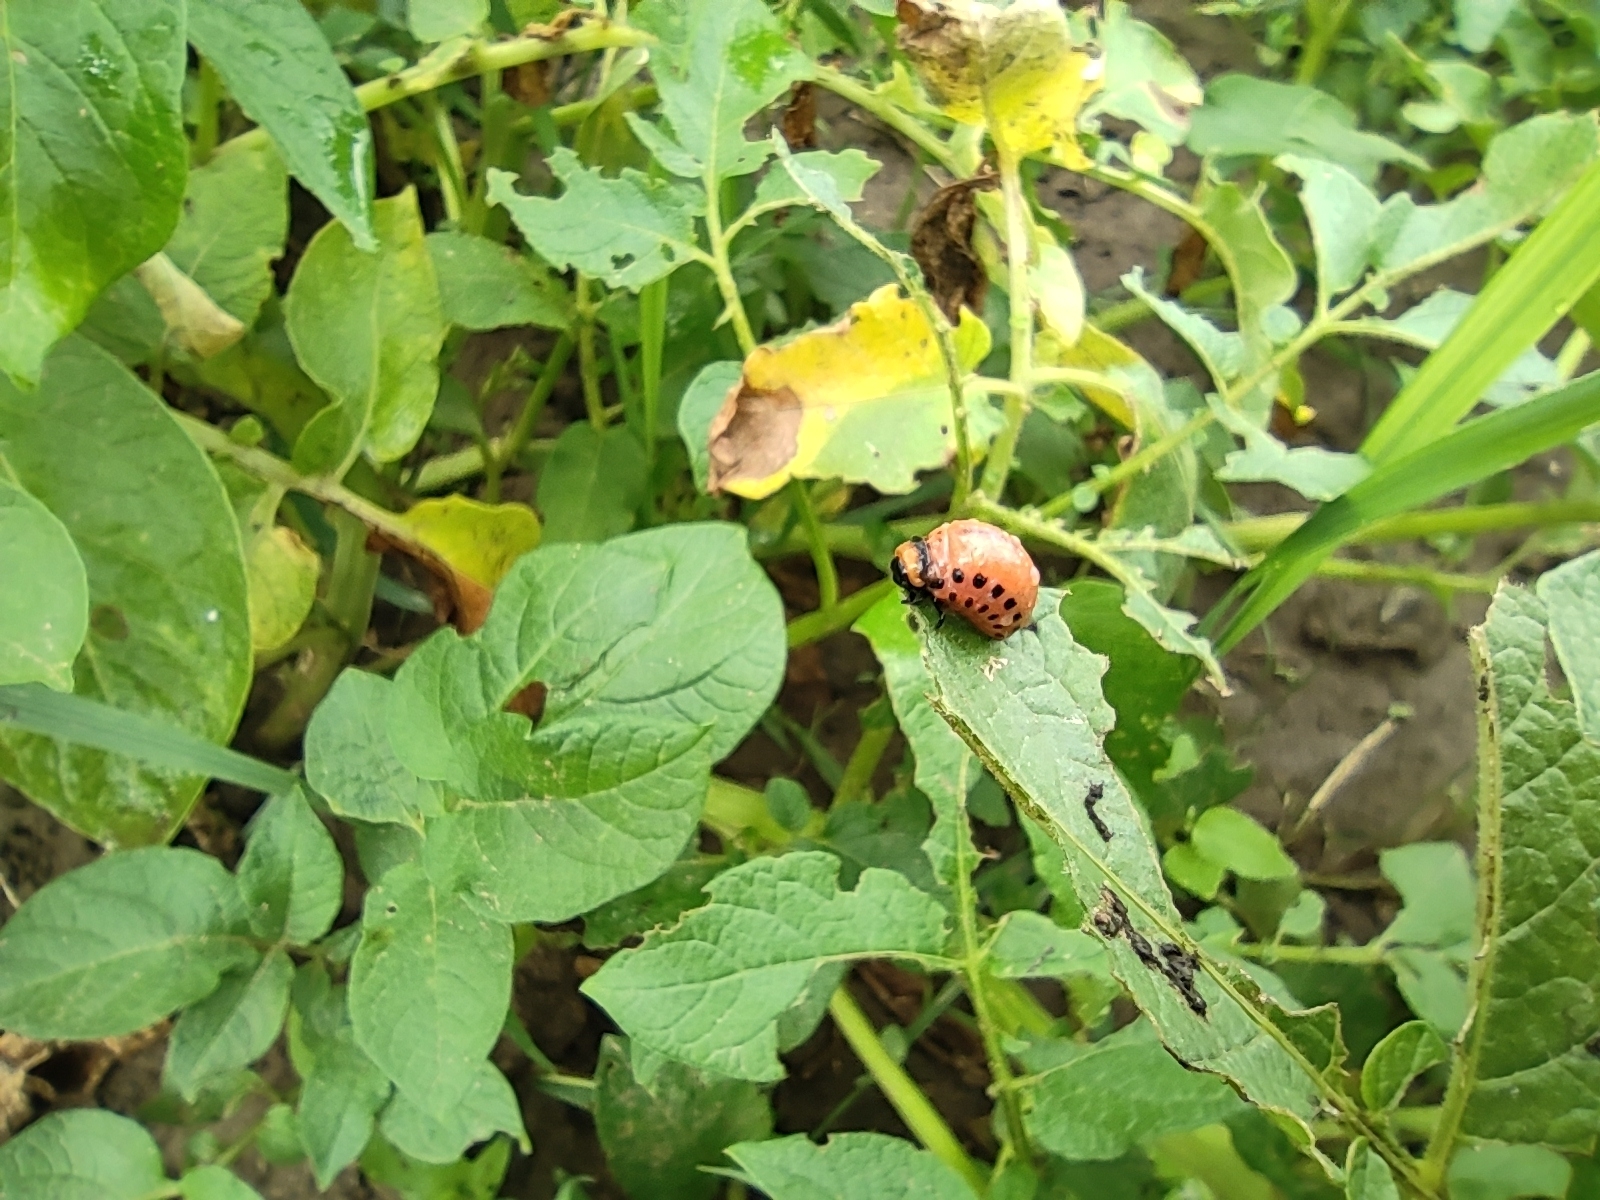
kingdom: Animalia
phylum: Arthropoda
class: Insecta
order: Coleoptera
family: Chrysomelidae
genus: Leptinotarsa
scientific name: Leptinotarsa decemlineata
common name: Colorado potato beetle
